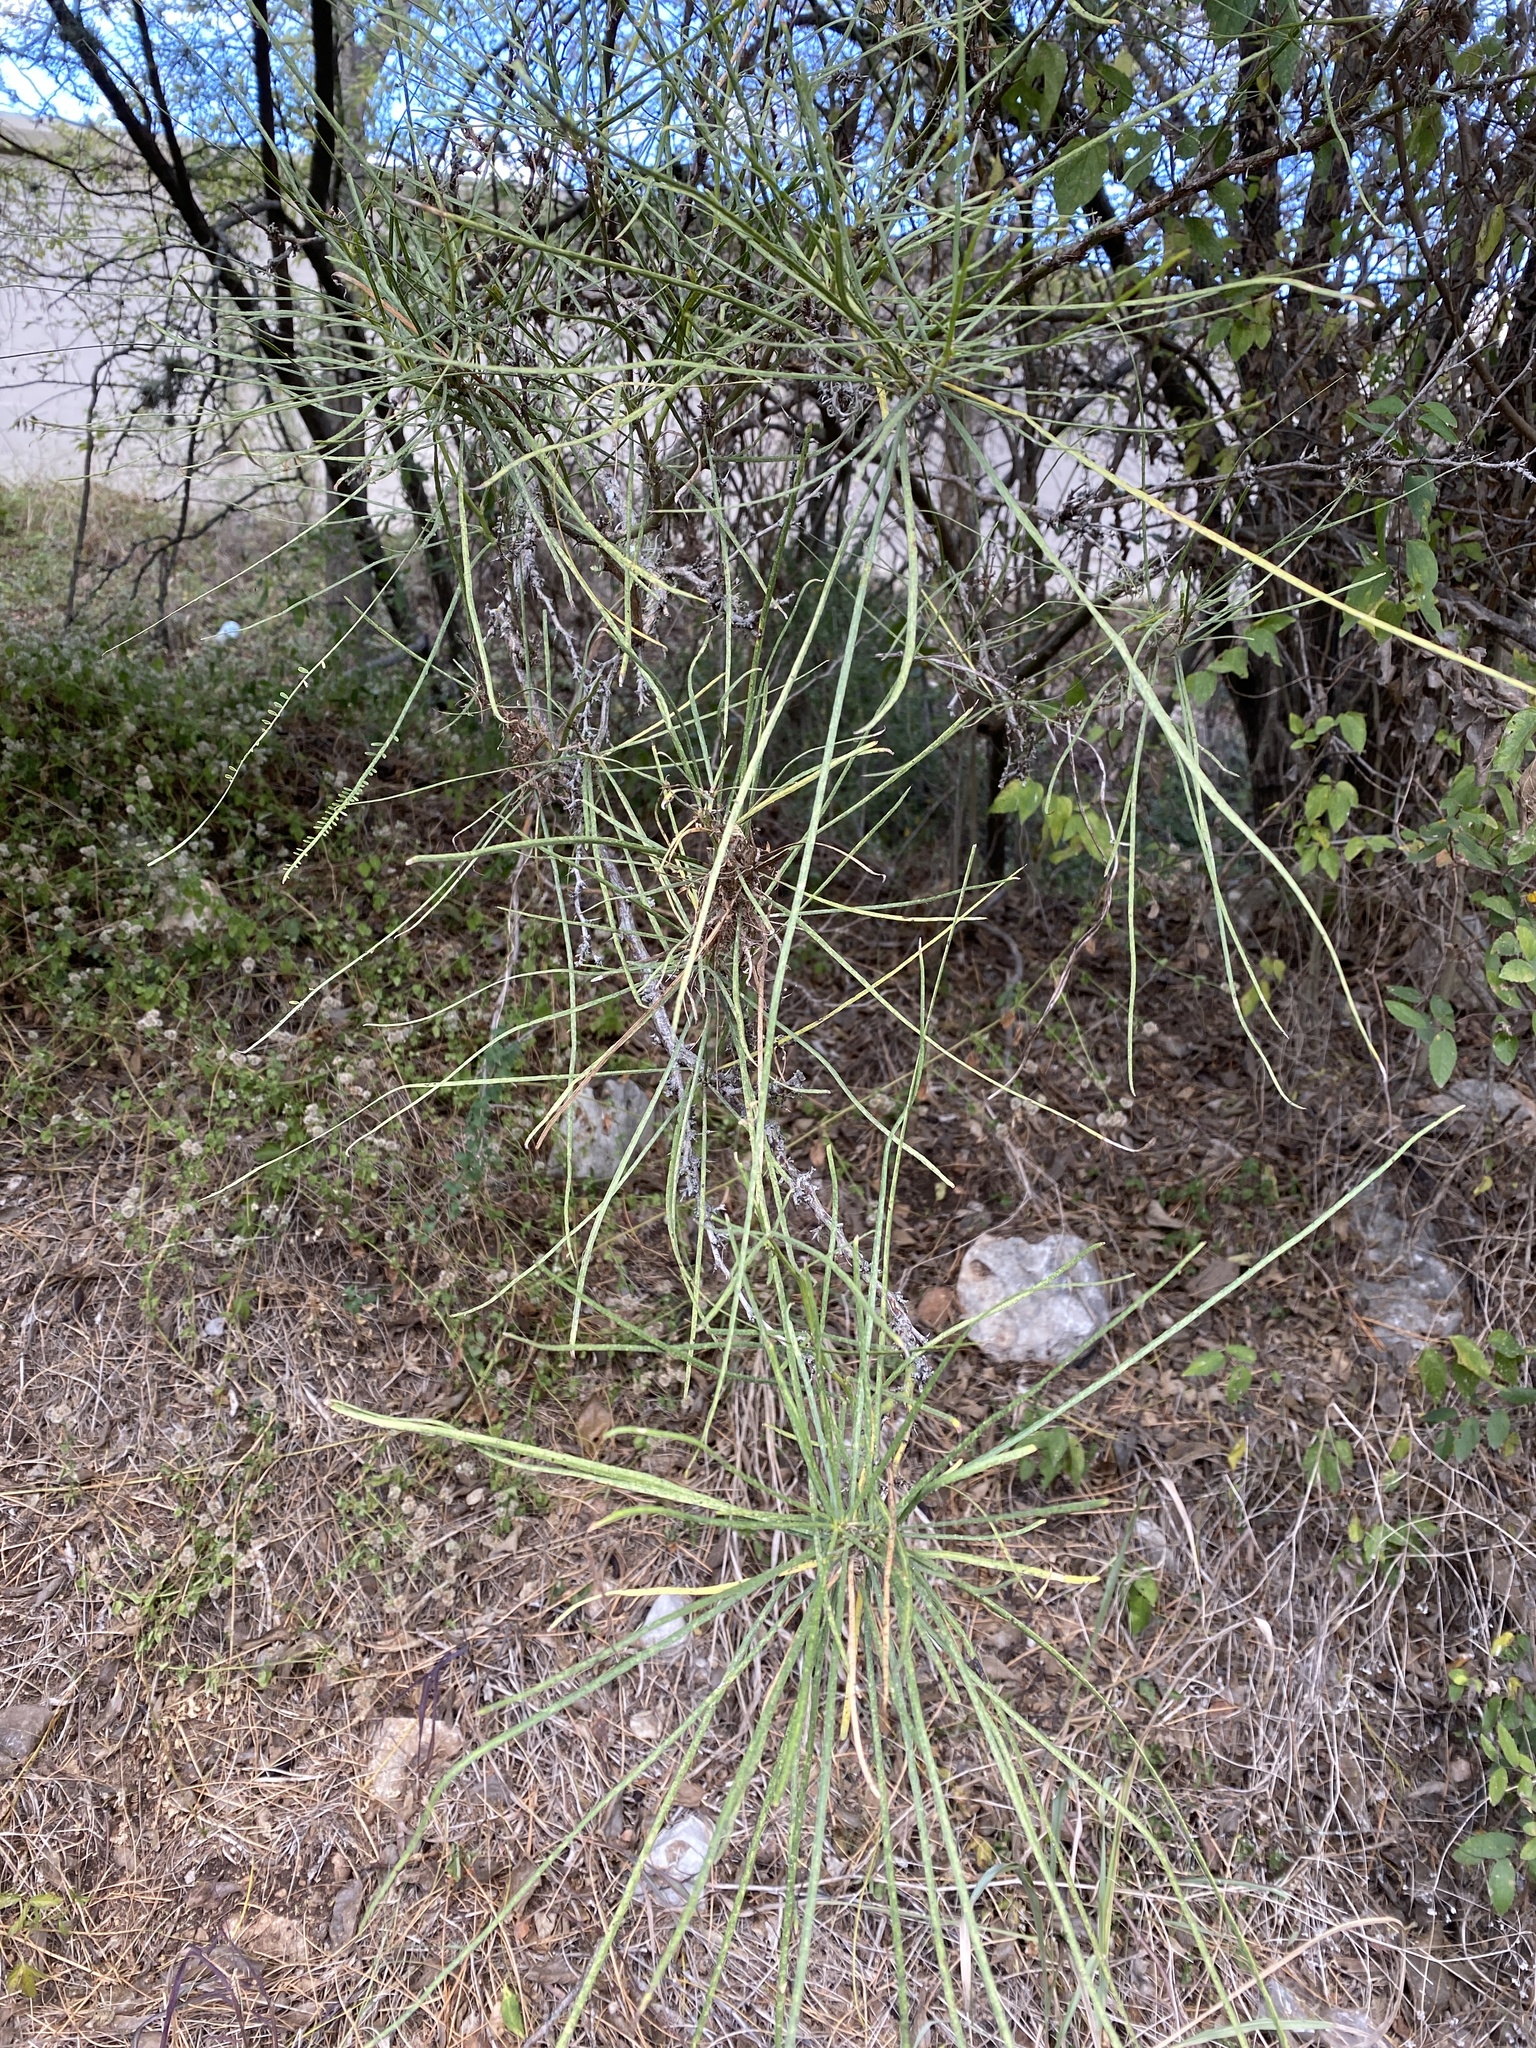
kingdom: Plantae
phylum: Tracheophyta
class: Magnoliopsida
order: Fabales
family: Fabaceae
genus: Parkinsonia
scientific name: Parkinsonia aculeata
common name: Jerusalem thorn
